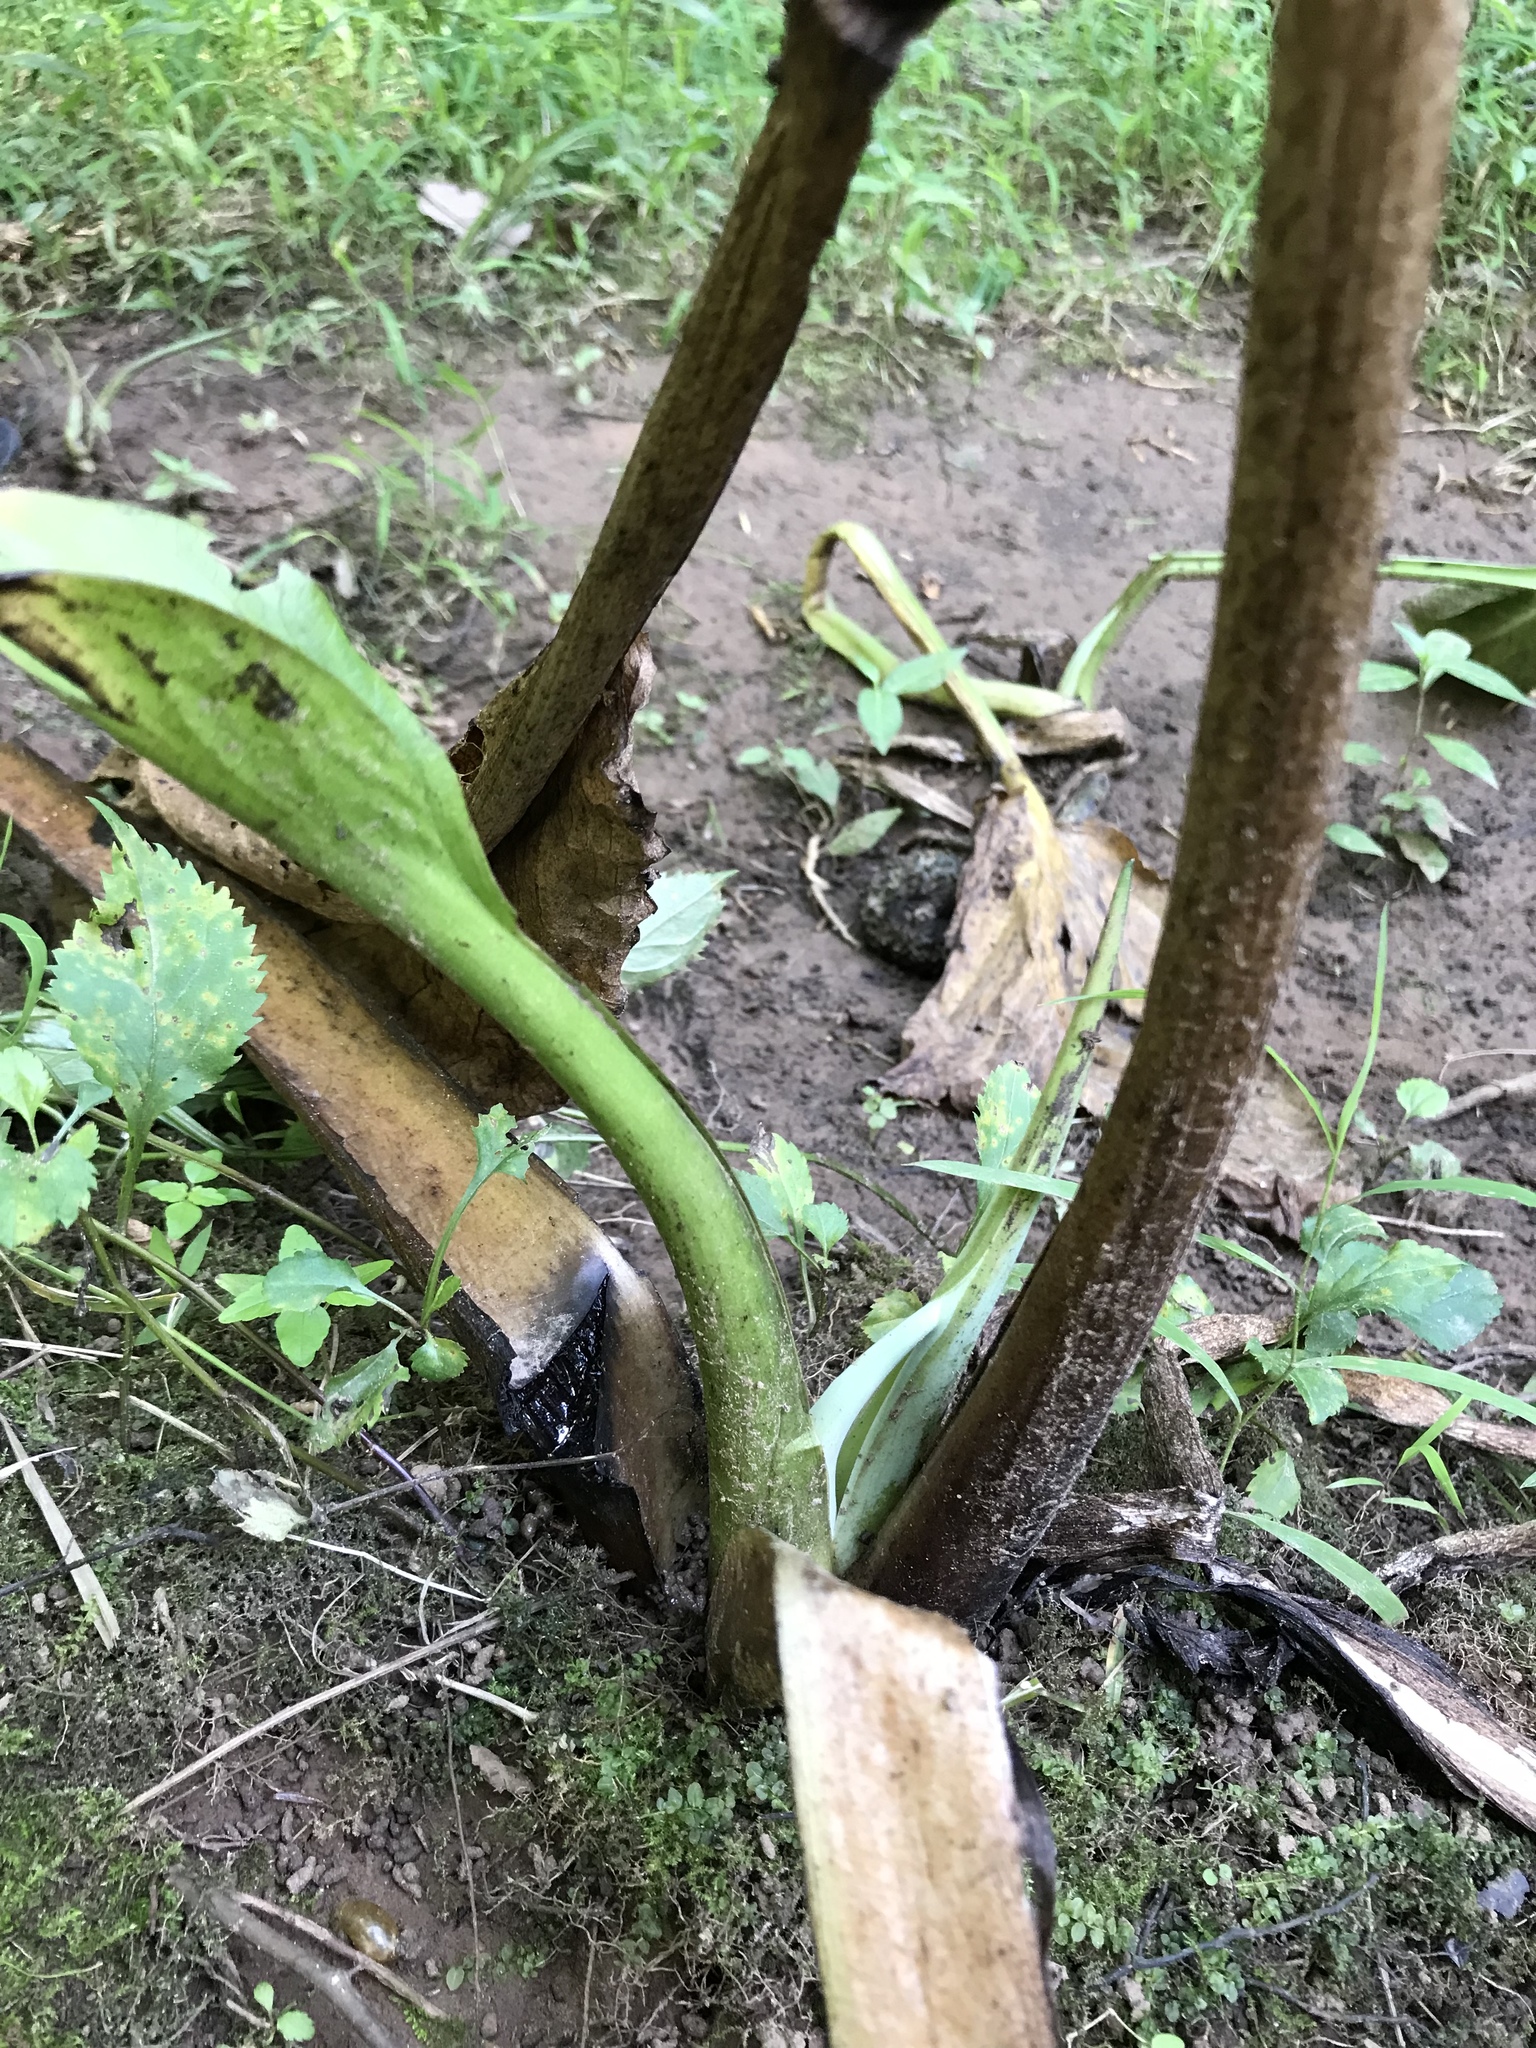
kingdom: Plantae
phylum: Tracheophyta
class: Liliopsida
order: Alismatales
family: Araceae
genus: Symplocarpus
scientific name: Symplocarpus foetidus
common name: Eastern skunk cabbage
